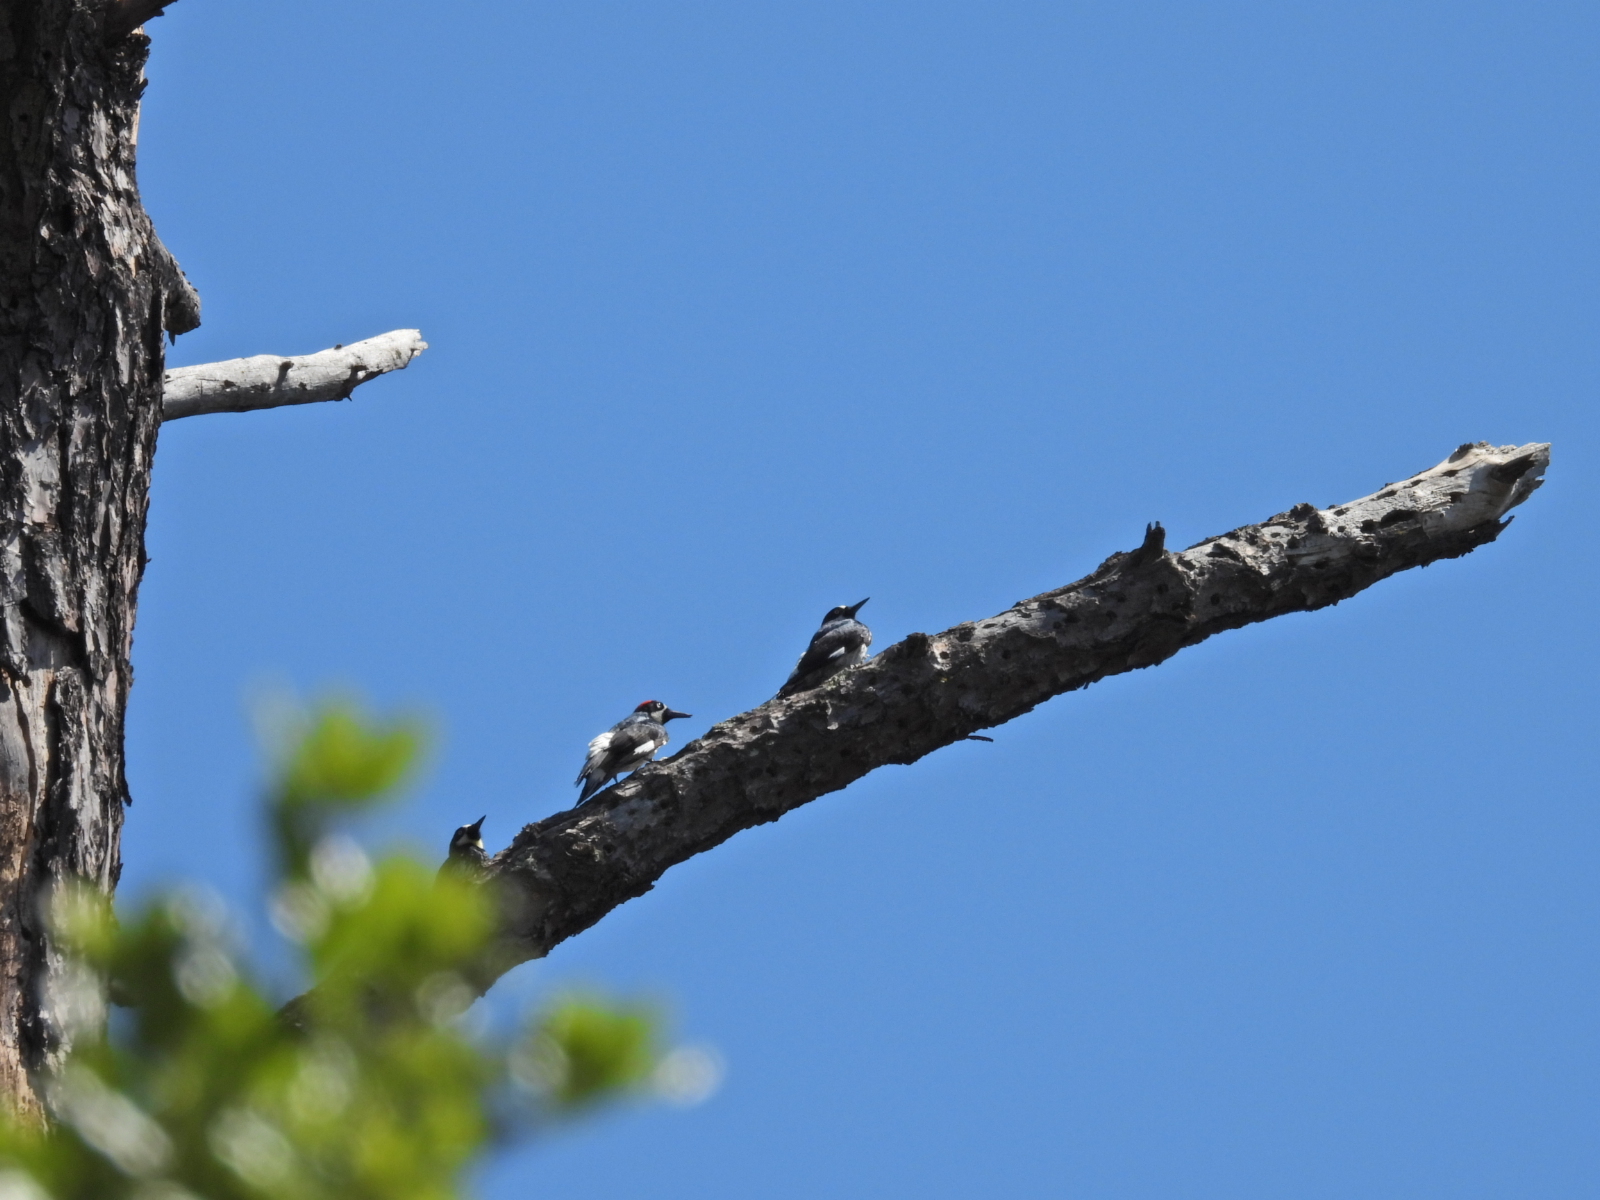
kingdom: Animalia
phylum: Chordata
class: Aves
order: Piciformes
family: Picidae
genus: Melanerpes
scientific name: Melanerpes formicivorus
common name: Acorn woodpecker
